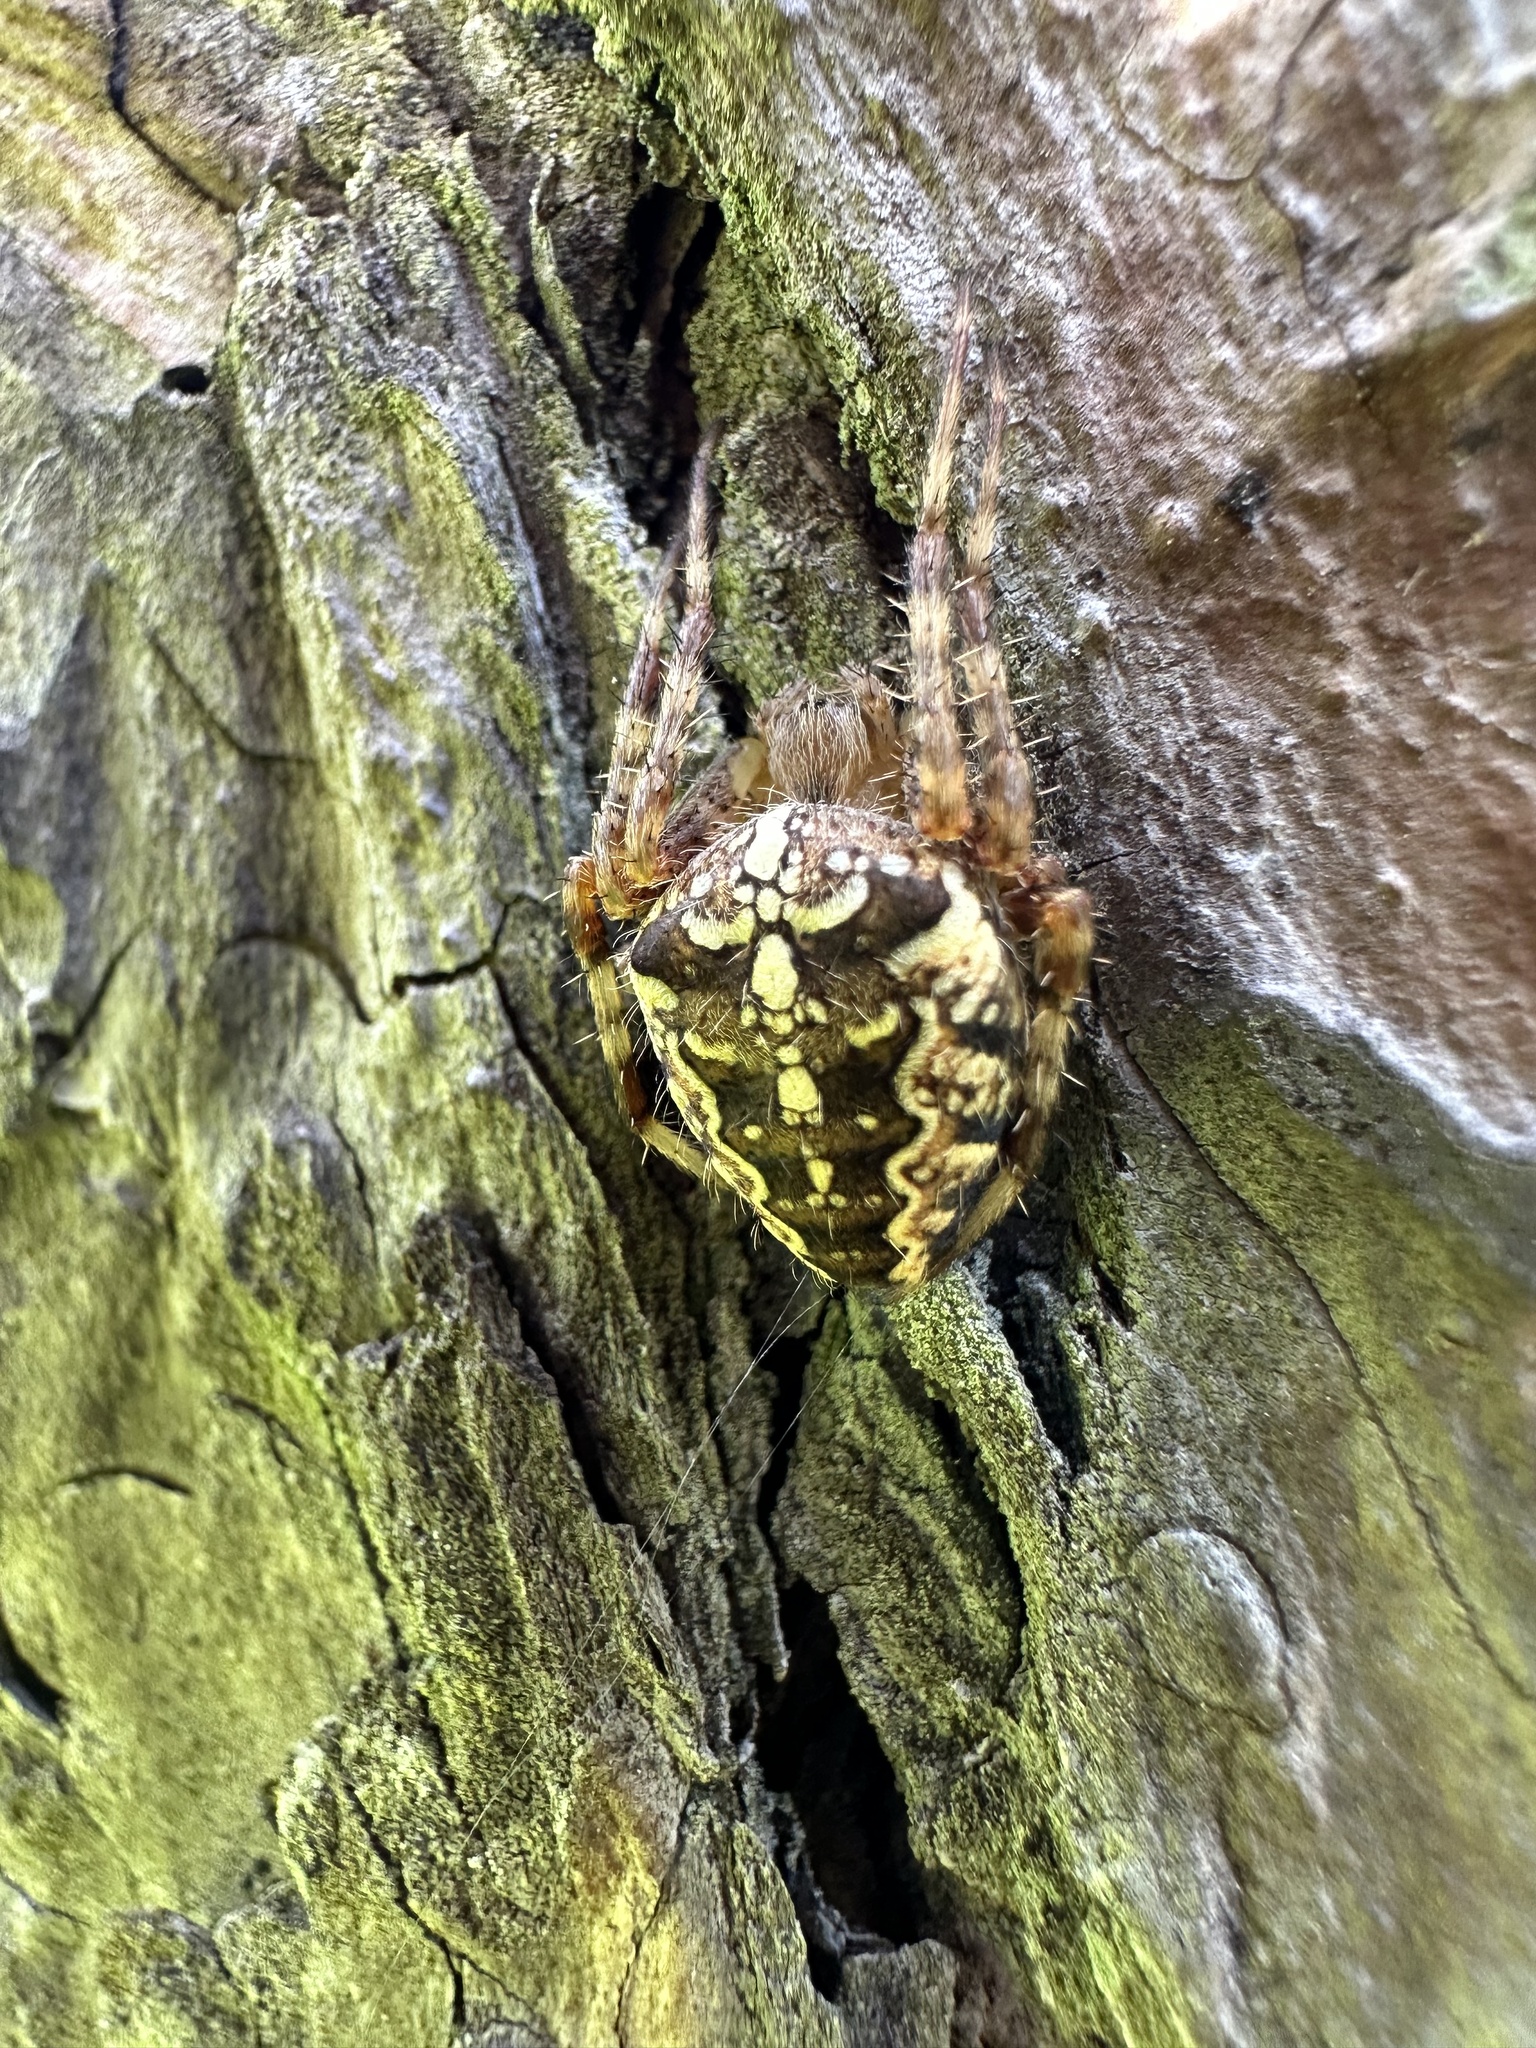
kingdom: Animalia
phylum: Arthropoda
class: Arachnida
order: Araneae
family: Araneidae
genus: Araneus
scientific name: Araneus diadematus
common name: Cross orbweaver
